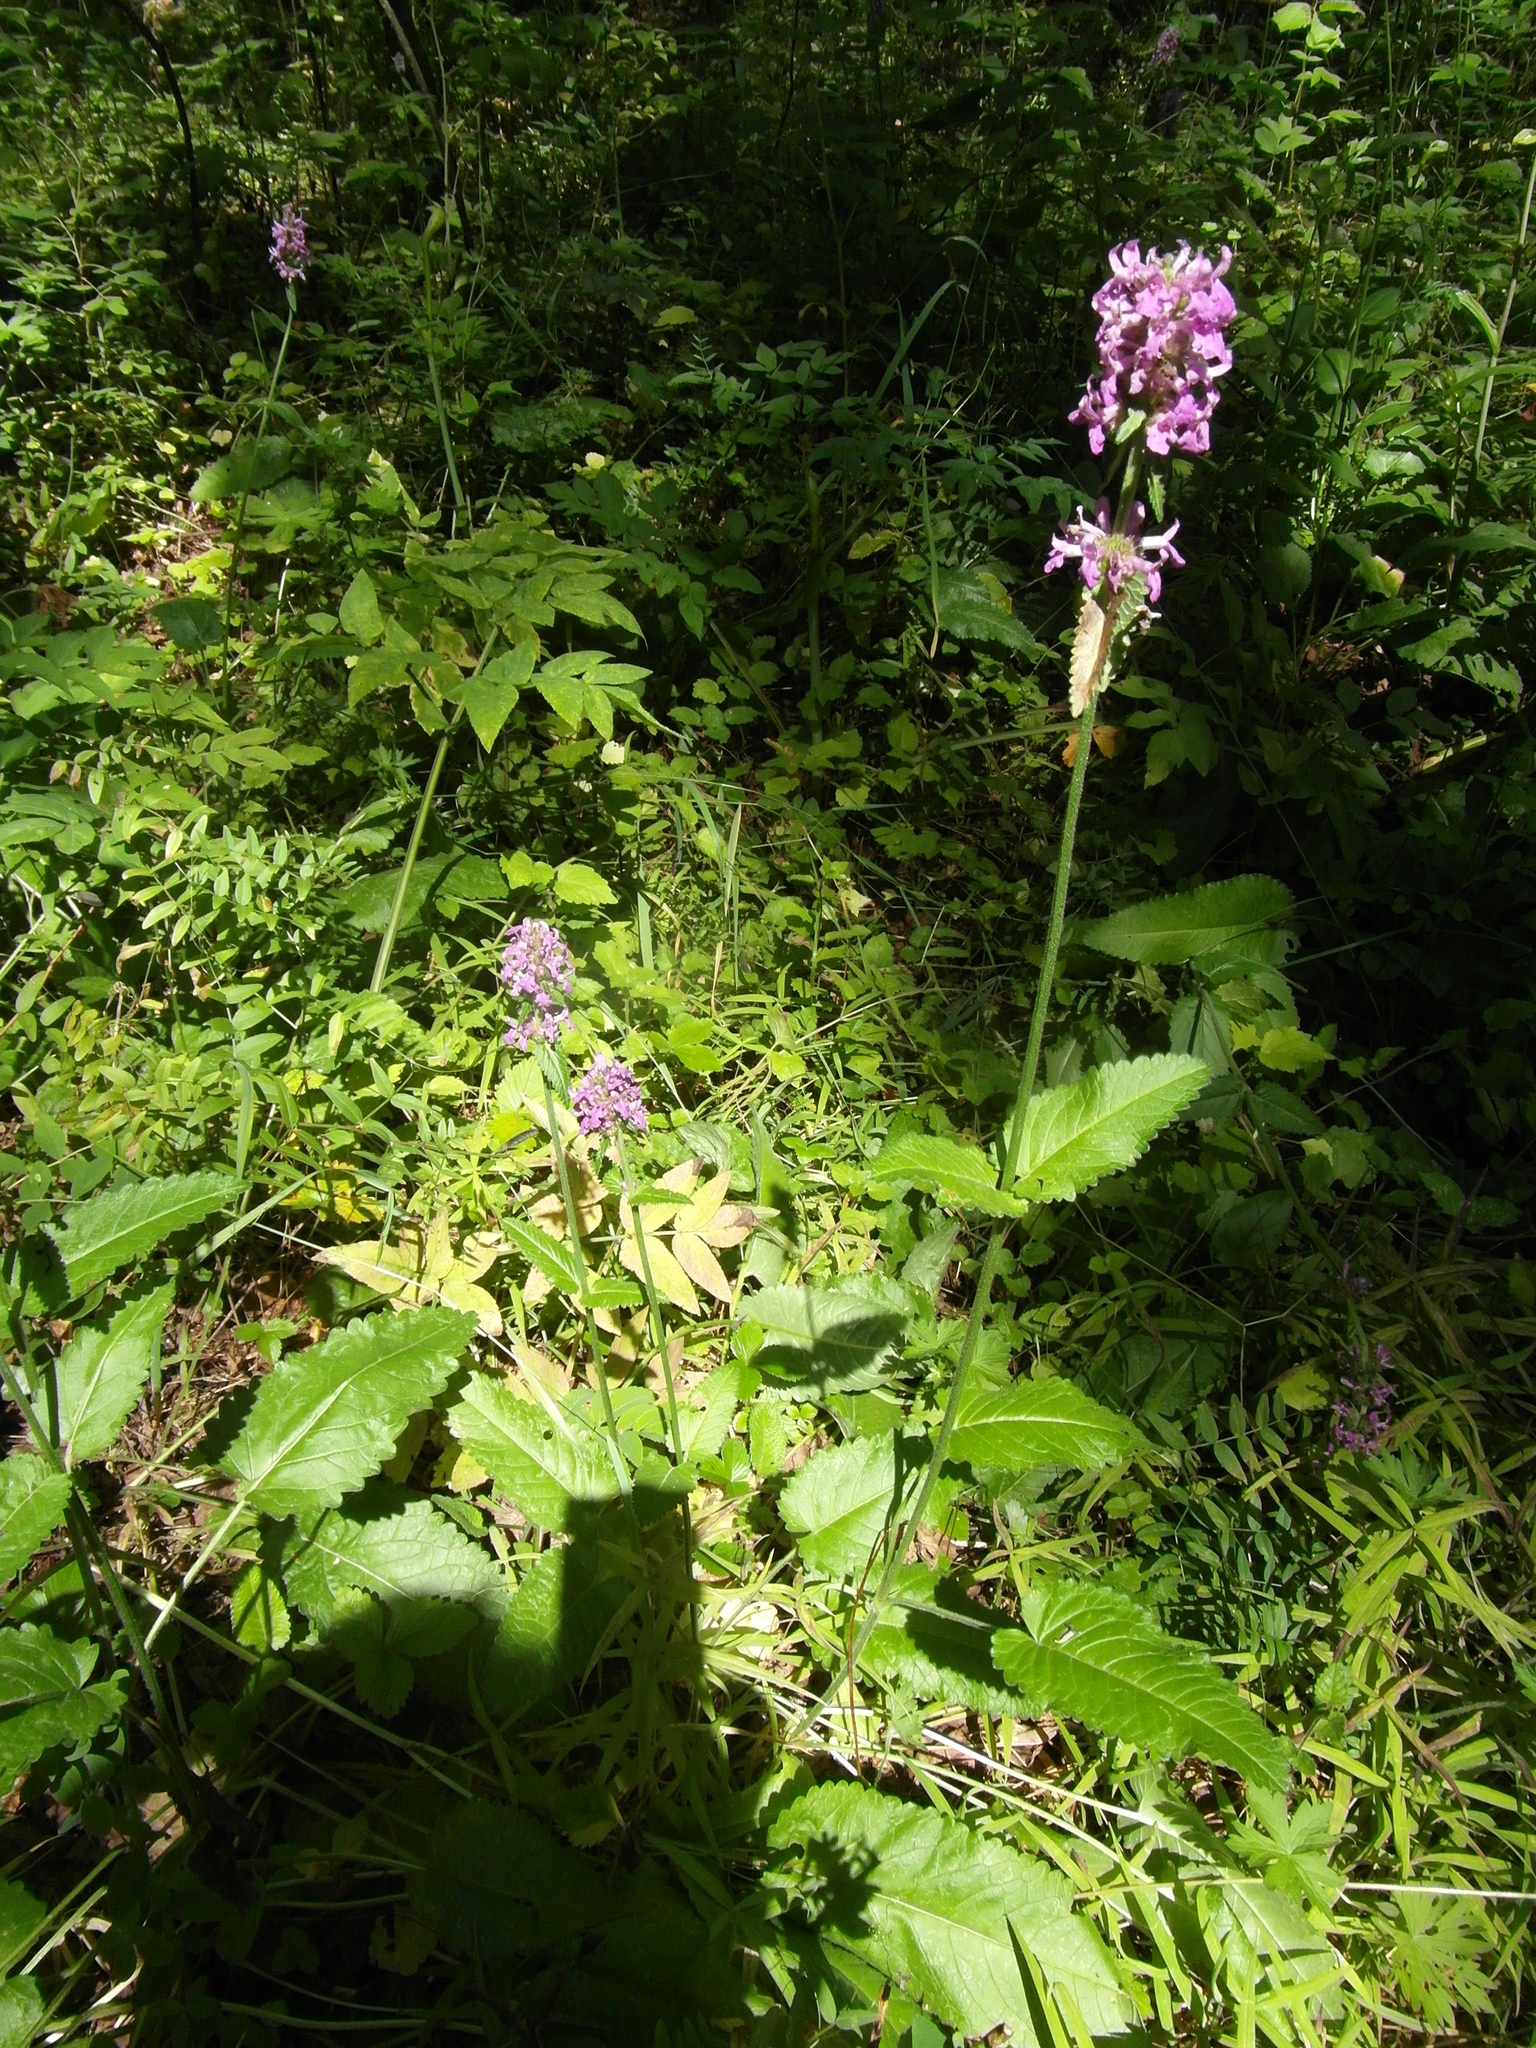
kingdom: Plantae
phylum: Tracheophyta
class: Magnoliopsida
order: Lamiales
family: Lamiaceae
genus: Betonica
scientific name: Betonica officinalis
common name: Bishop's-wort
